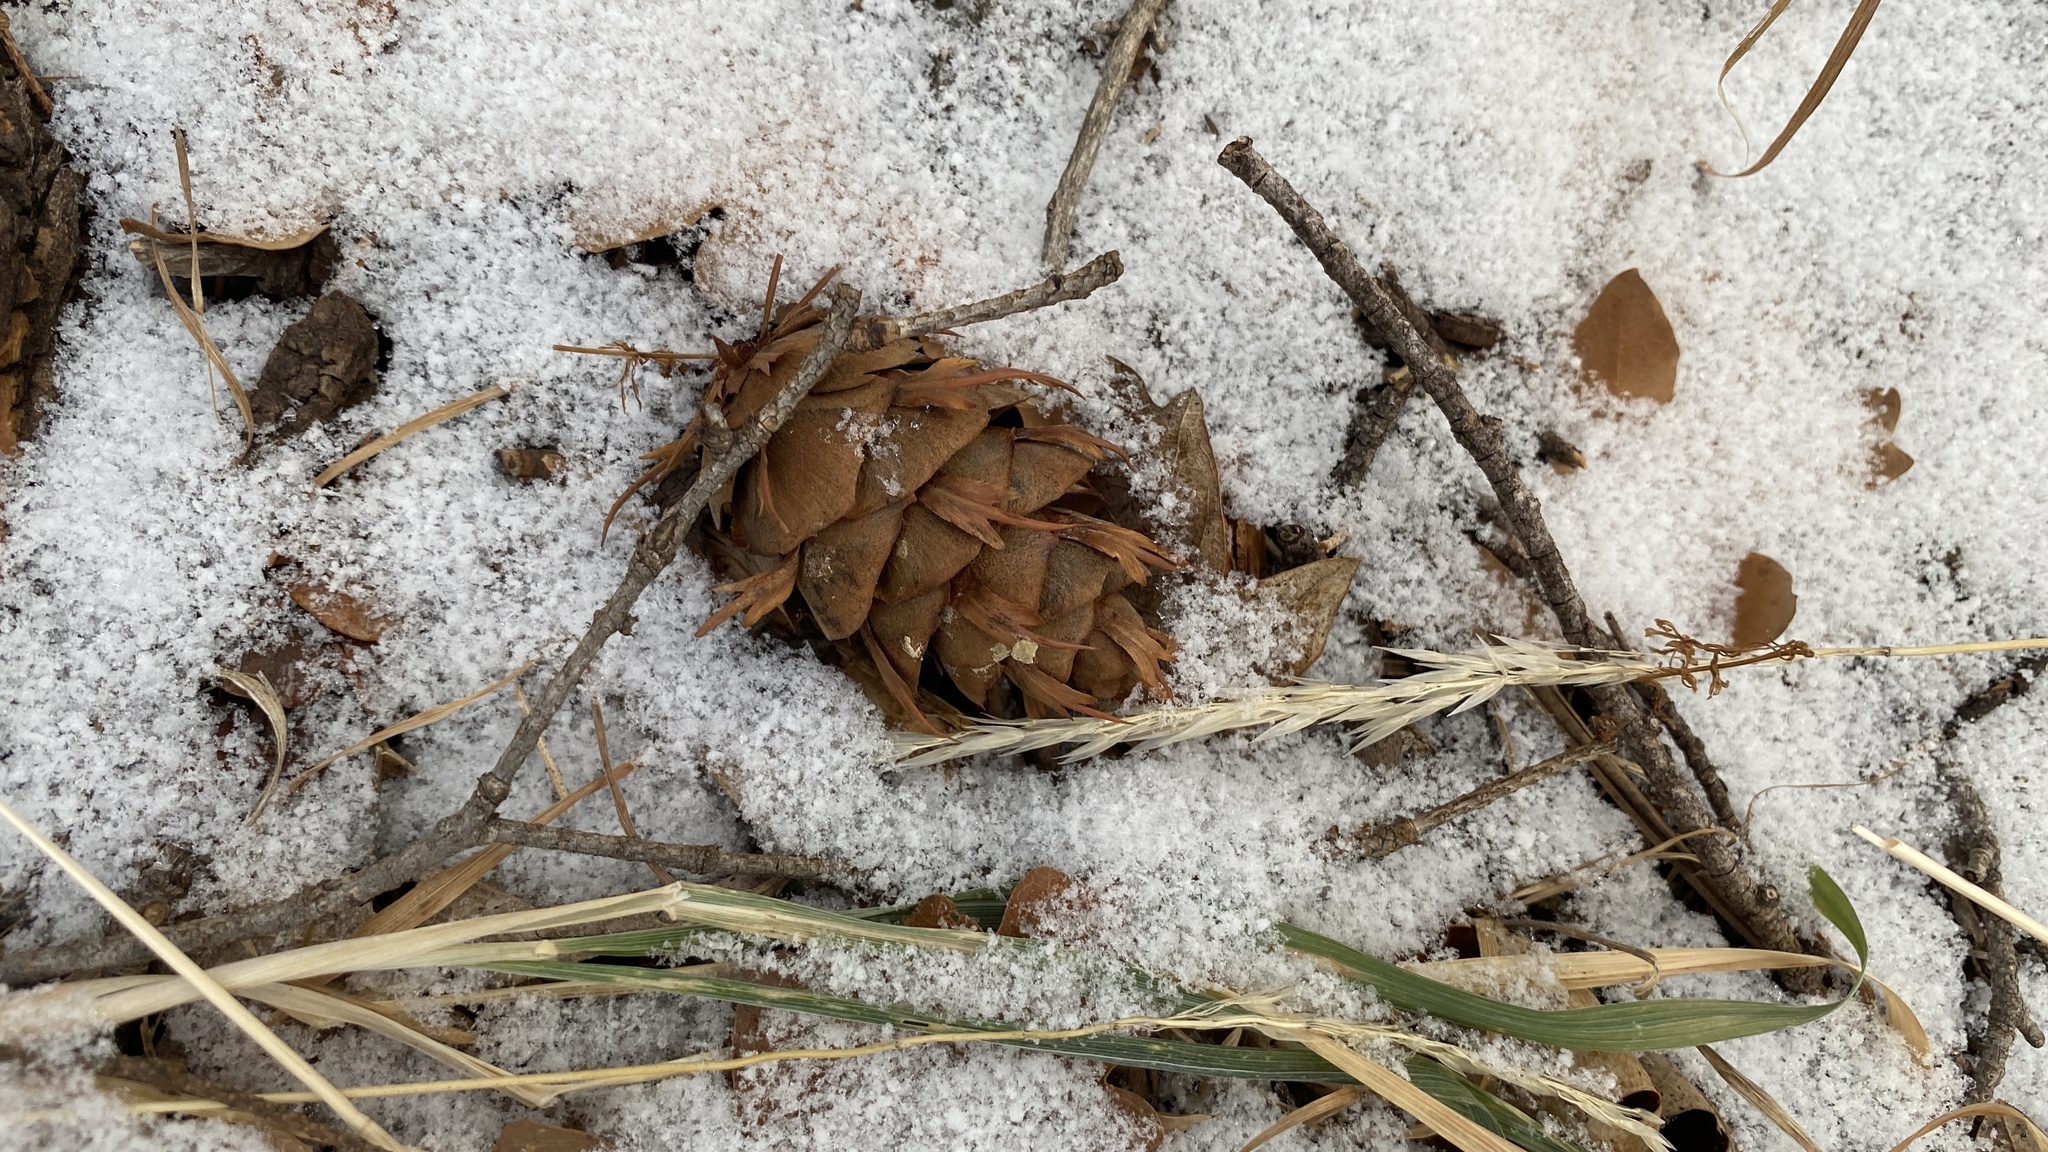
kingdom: Plantae
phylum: Tracheophyta
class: Pinopsida
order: Pinales
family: Pinaceae
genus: Pseudotsuga
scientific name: Pseudotsuga menziesii
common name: Douglas fir
